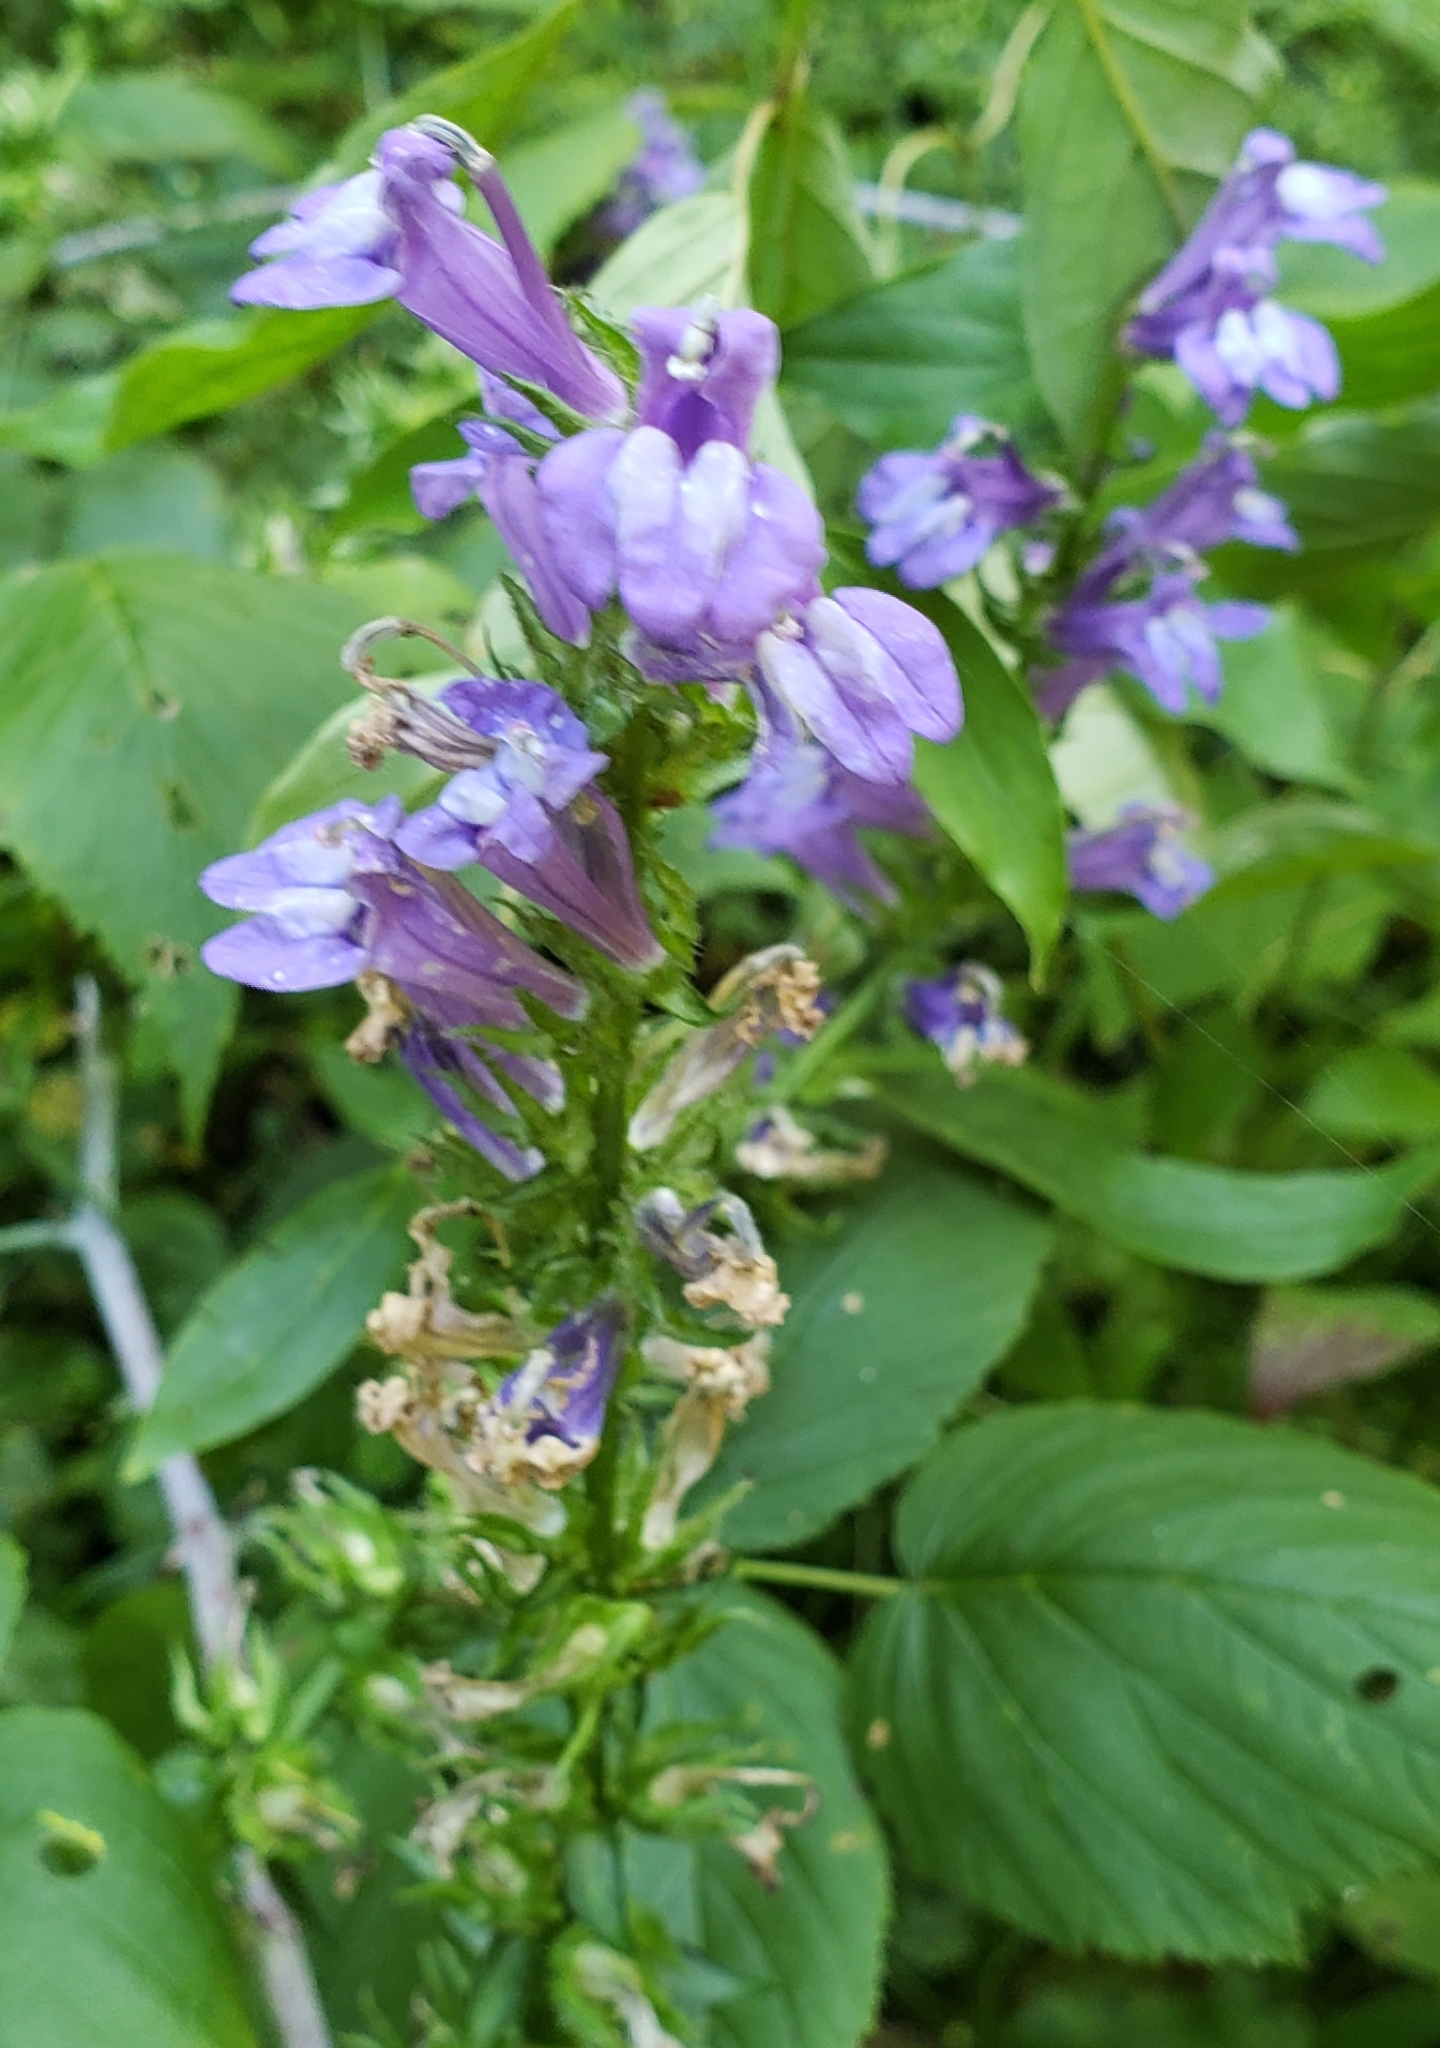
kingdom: Plantae
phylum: Tracheophyta
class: Magnoliopsida
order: Asterales
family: Campanulaceae
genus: Lobelia
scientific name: Lobelia siphilitica
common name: Great lobelia
